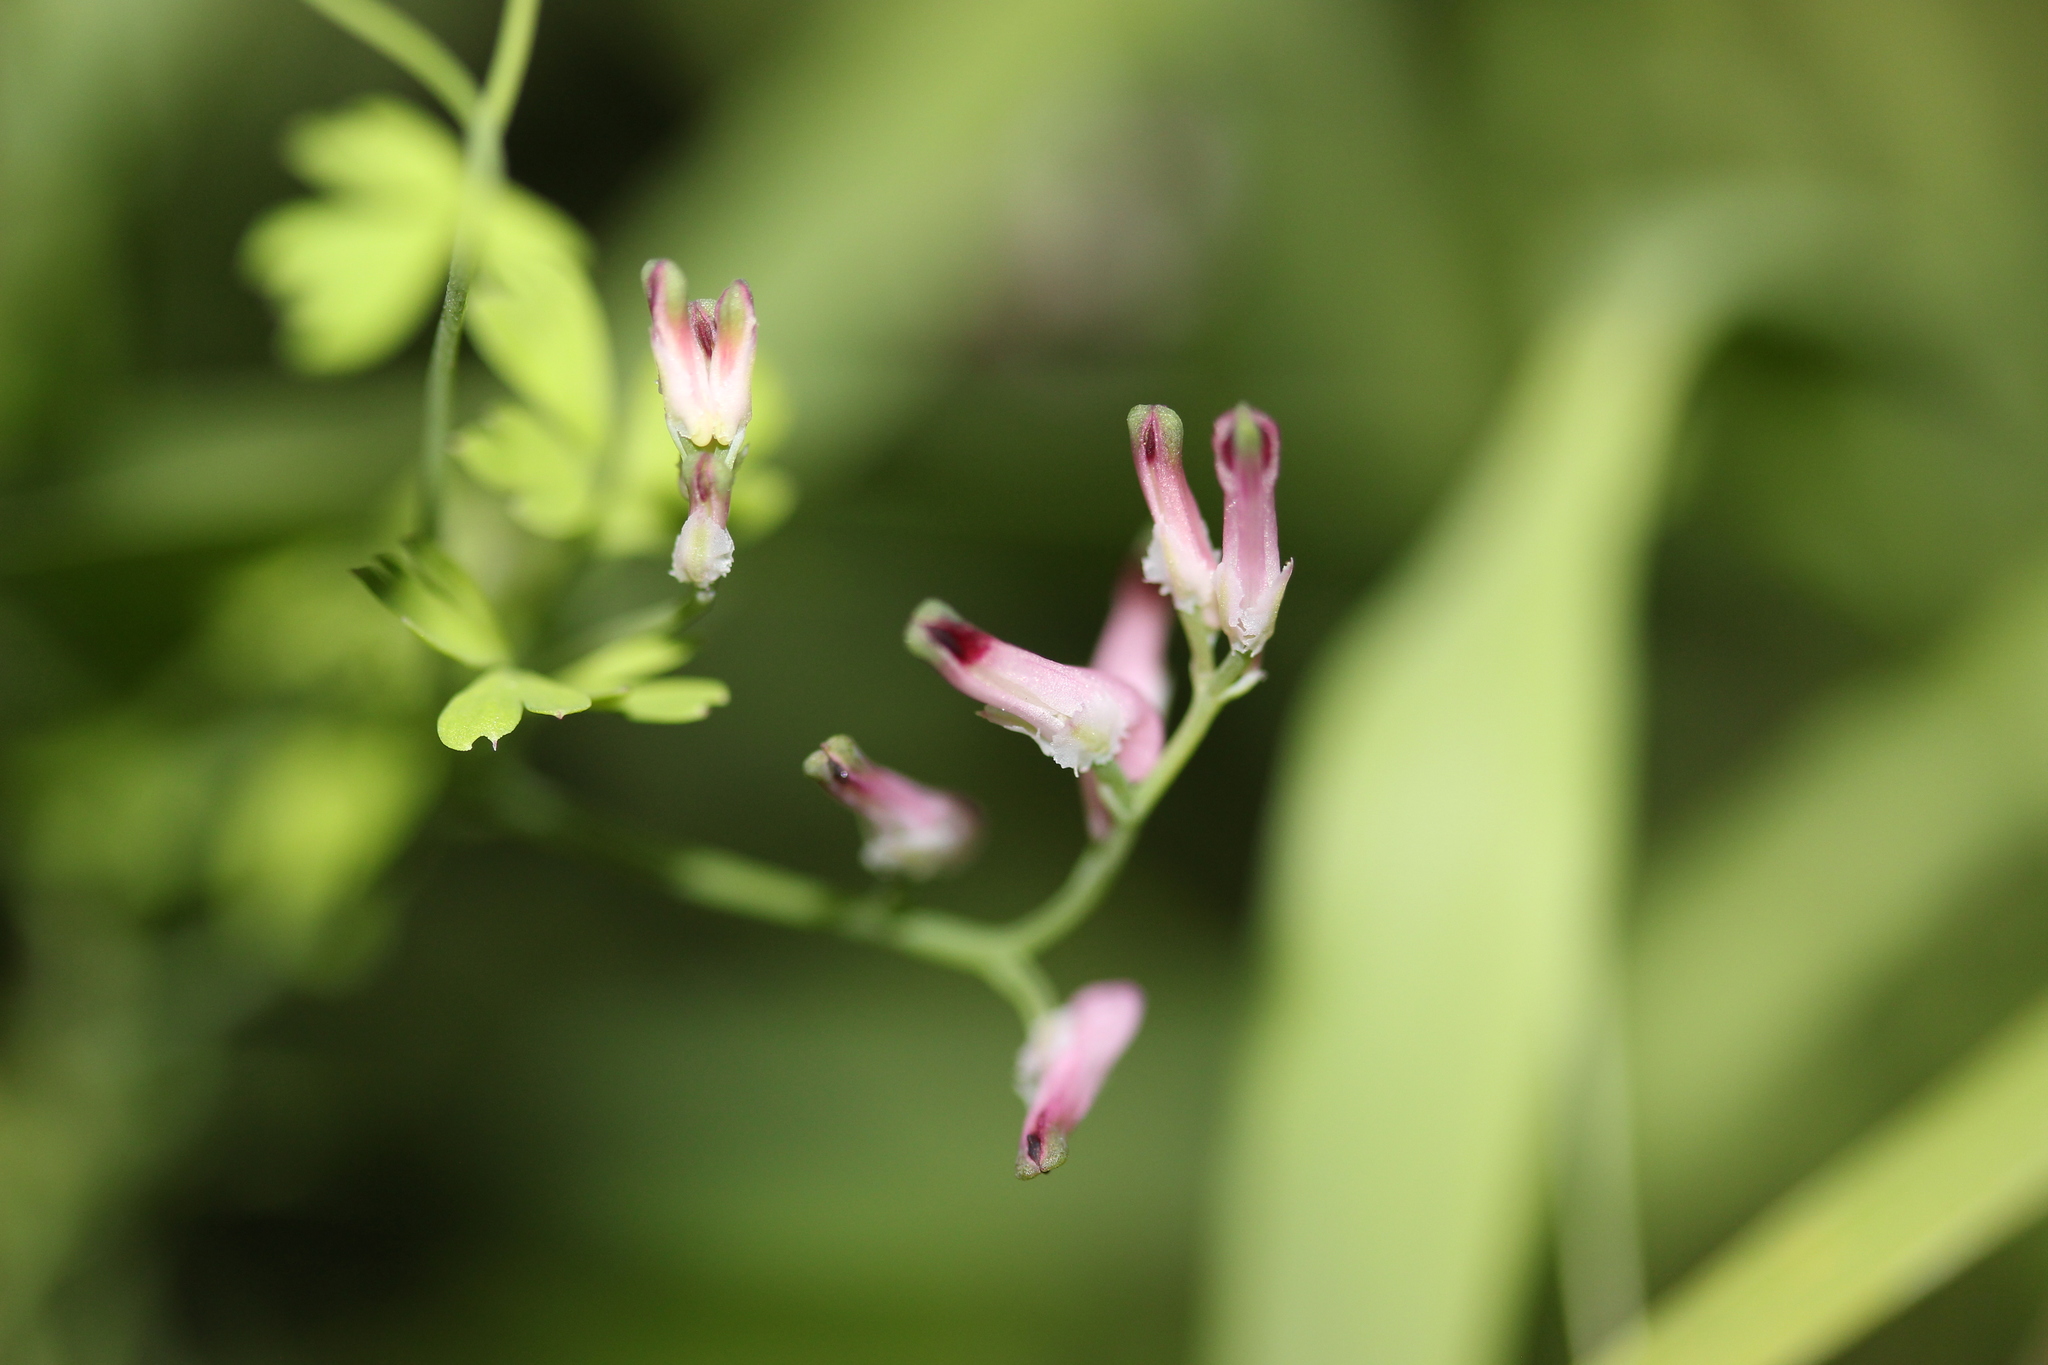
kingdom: Plantae
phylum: Tracheophyta
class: Magnoliopsida
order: Ranunculales
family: Papaveraceae
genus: Fumaria
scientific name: Fumaria muralis
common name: Common ramping-fumitory
